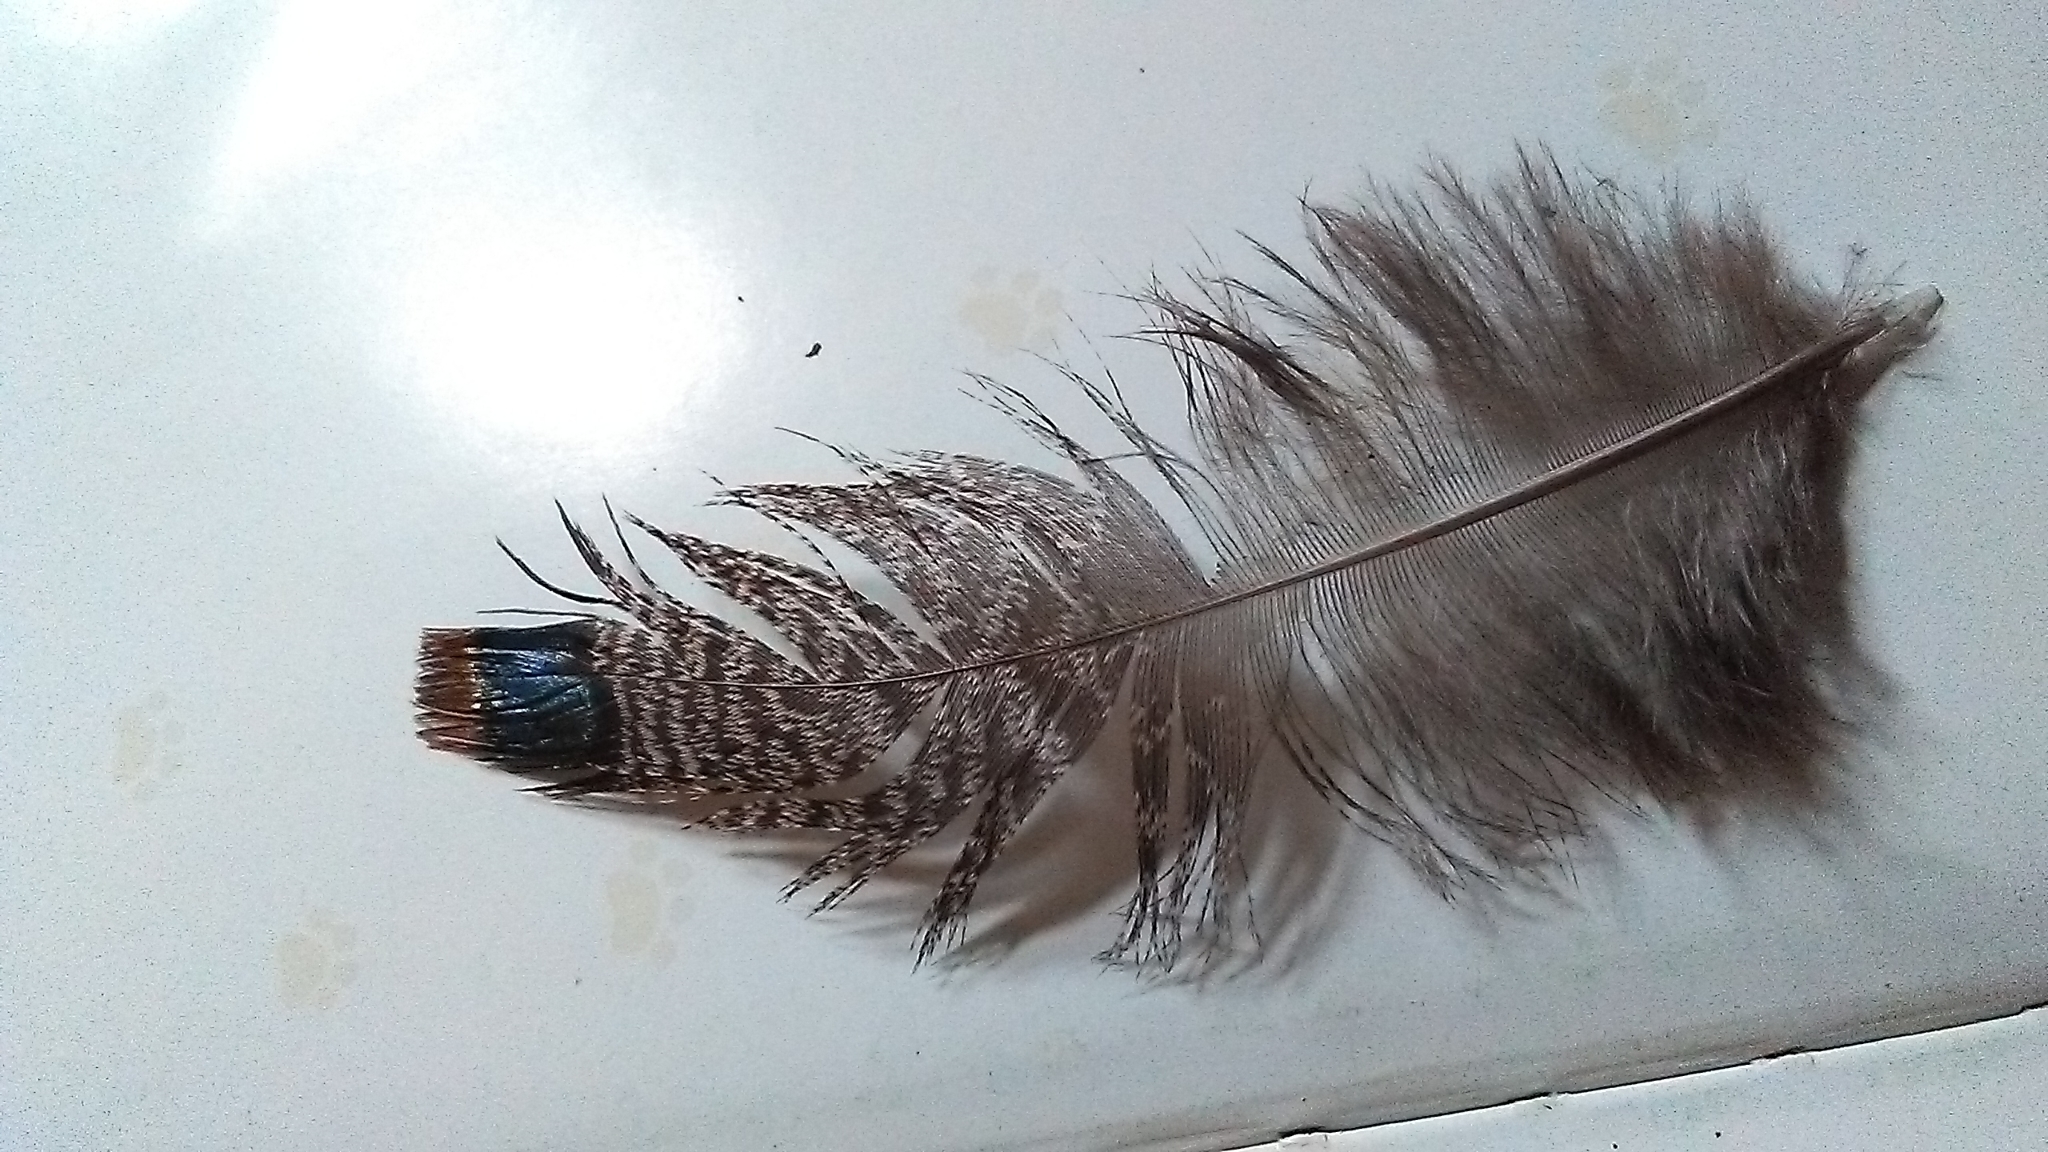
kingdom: Animalia
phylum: Chordata
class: Aves
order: Galliformes
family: Phasianidae
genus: Meleagris
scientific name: Meleagris ocellata
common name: Ocellated turkey
